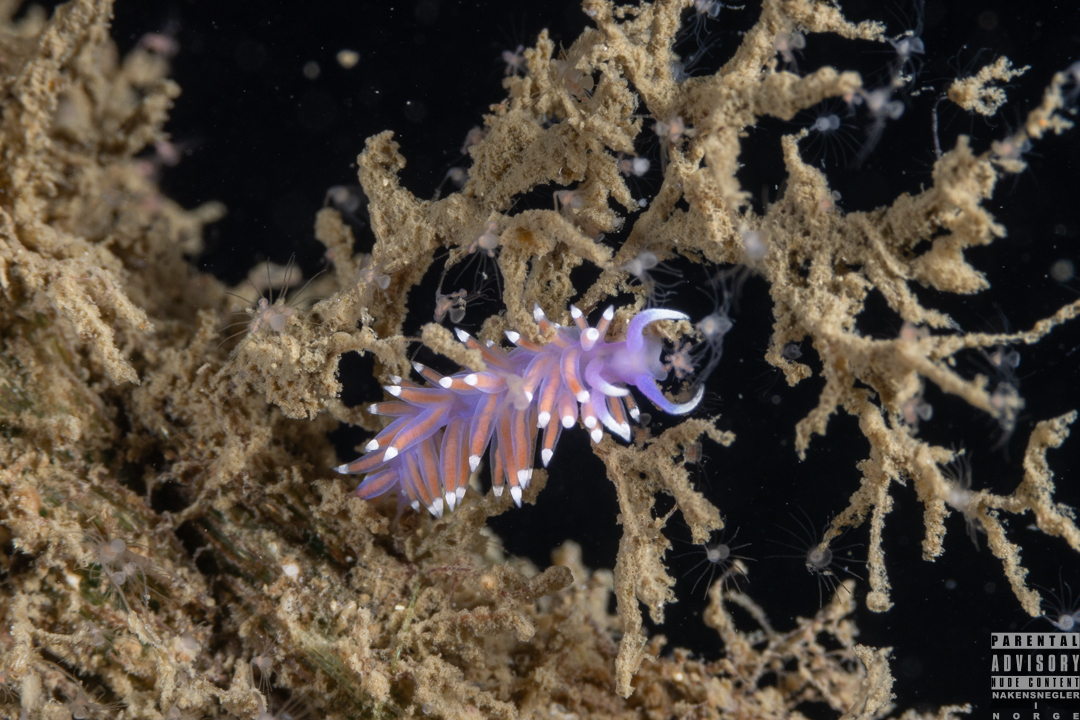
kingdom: Animalia
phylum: Mollusca
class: Gastropoda
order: Nudibranchia
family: Flabellinidae
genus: Edmundsella
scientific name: Edmundsella pedata
